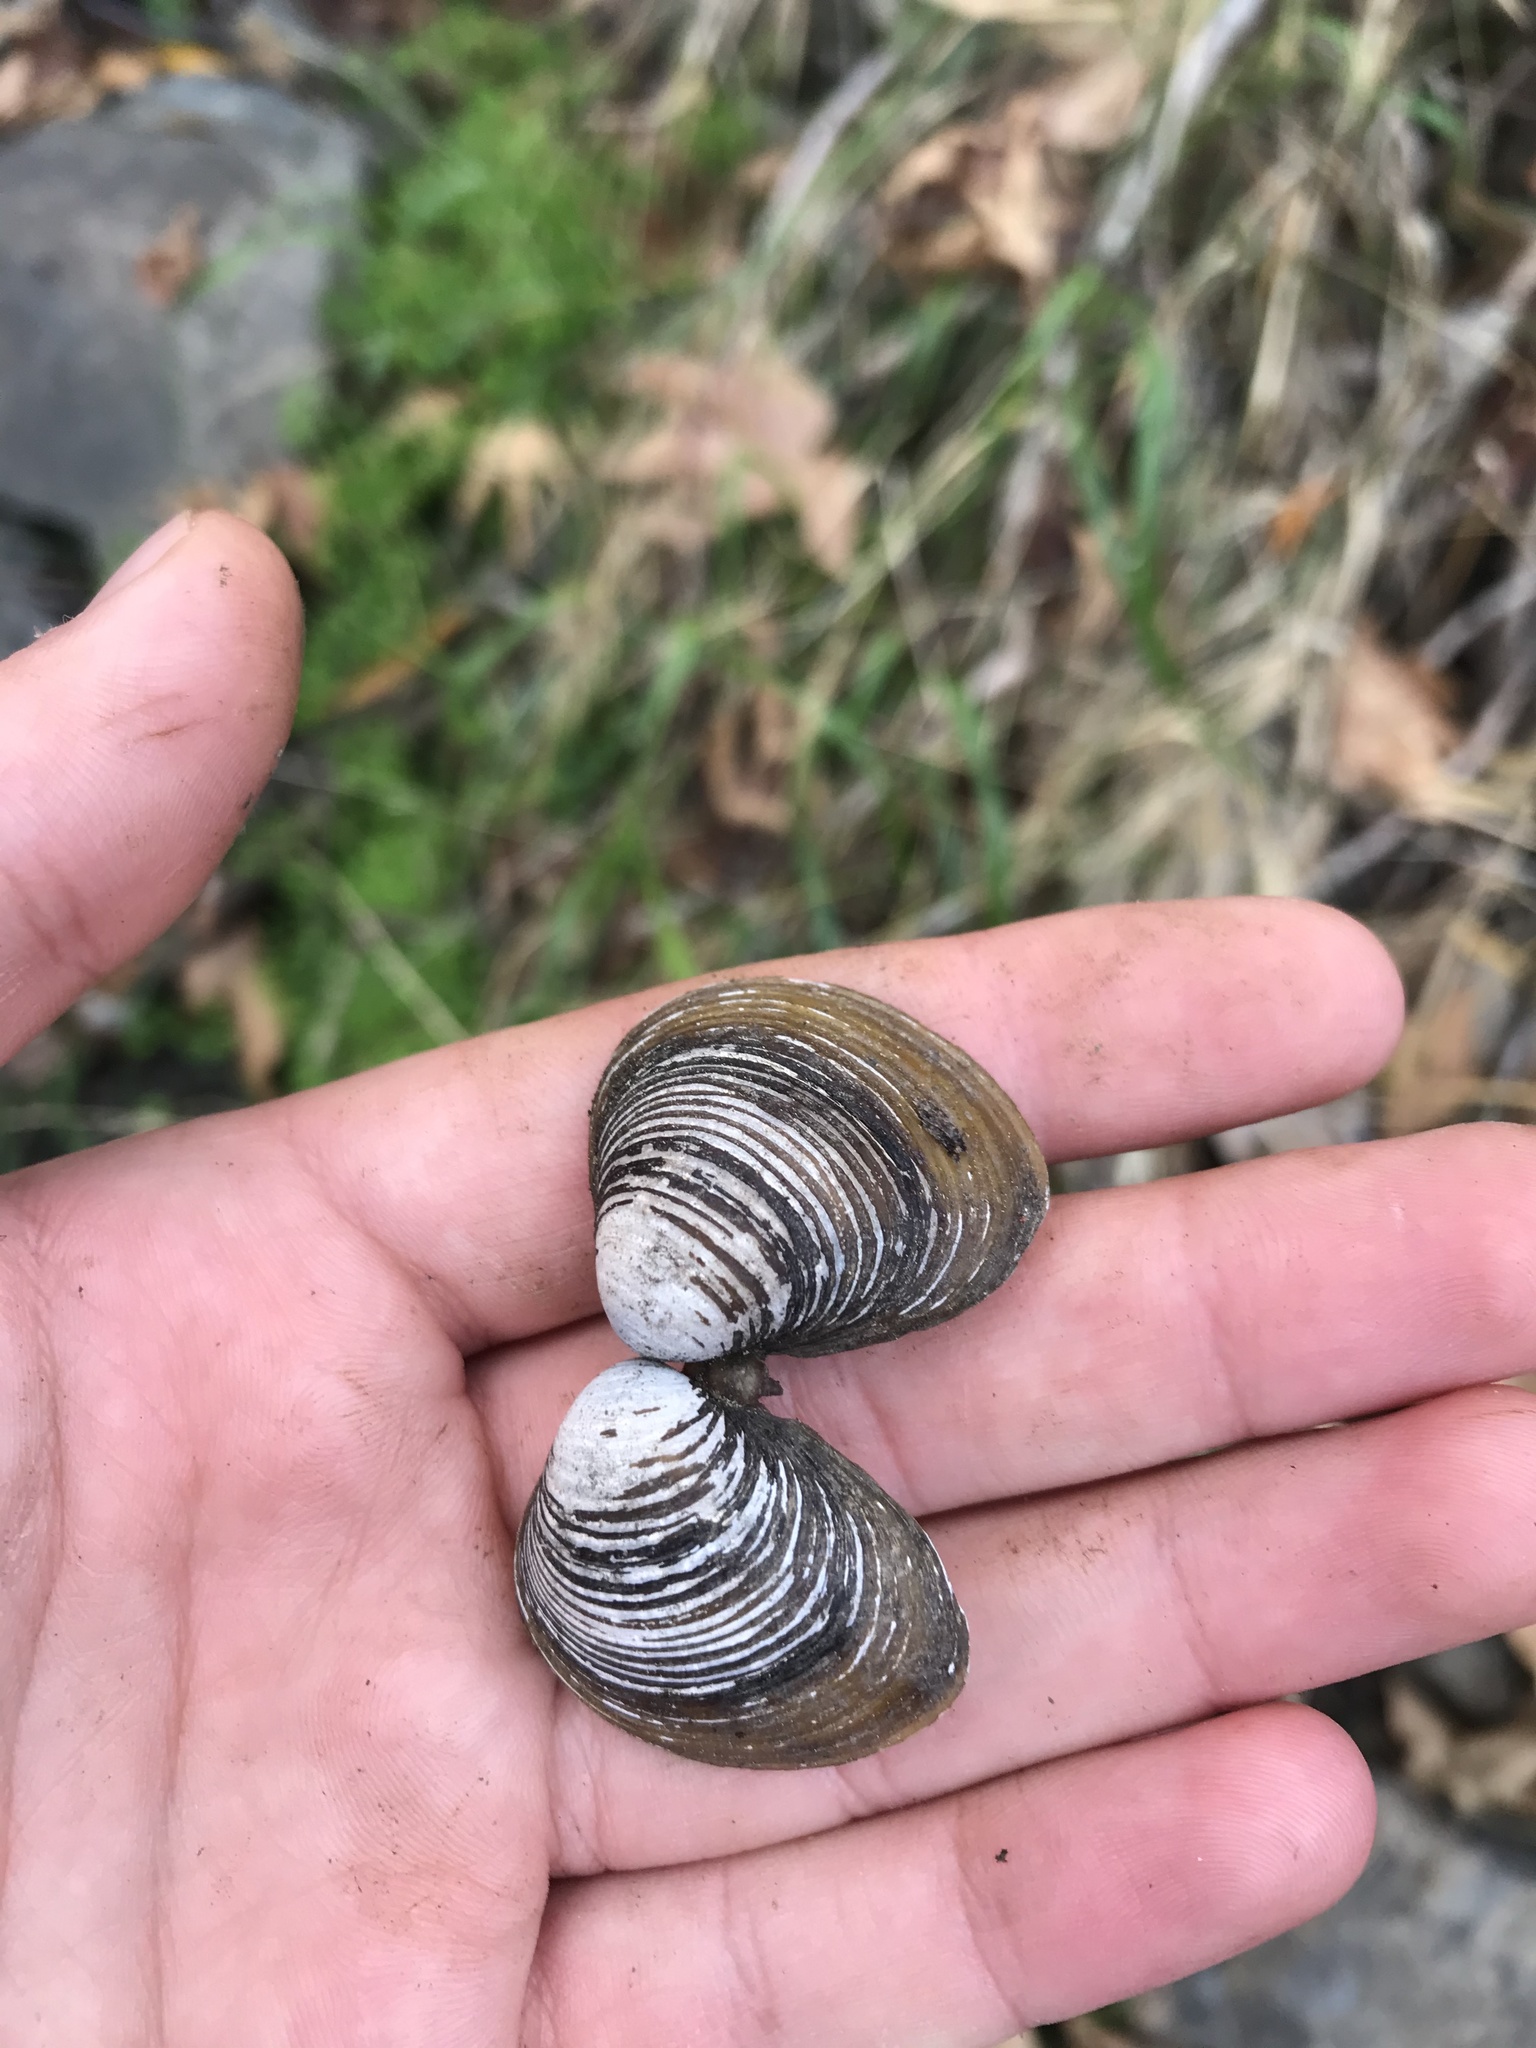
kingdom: Animalia
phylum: Mollusca
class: Bivalvia
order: Venerida
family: Cyrenidae
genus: Corbicula
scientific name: Corbicula fluminea
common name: Asian clam
